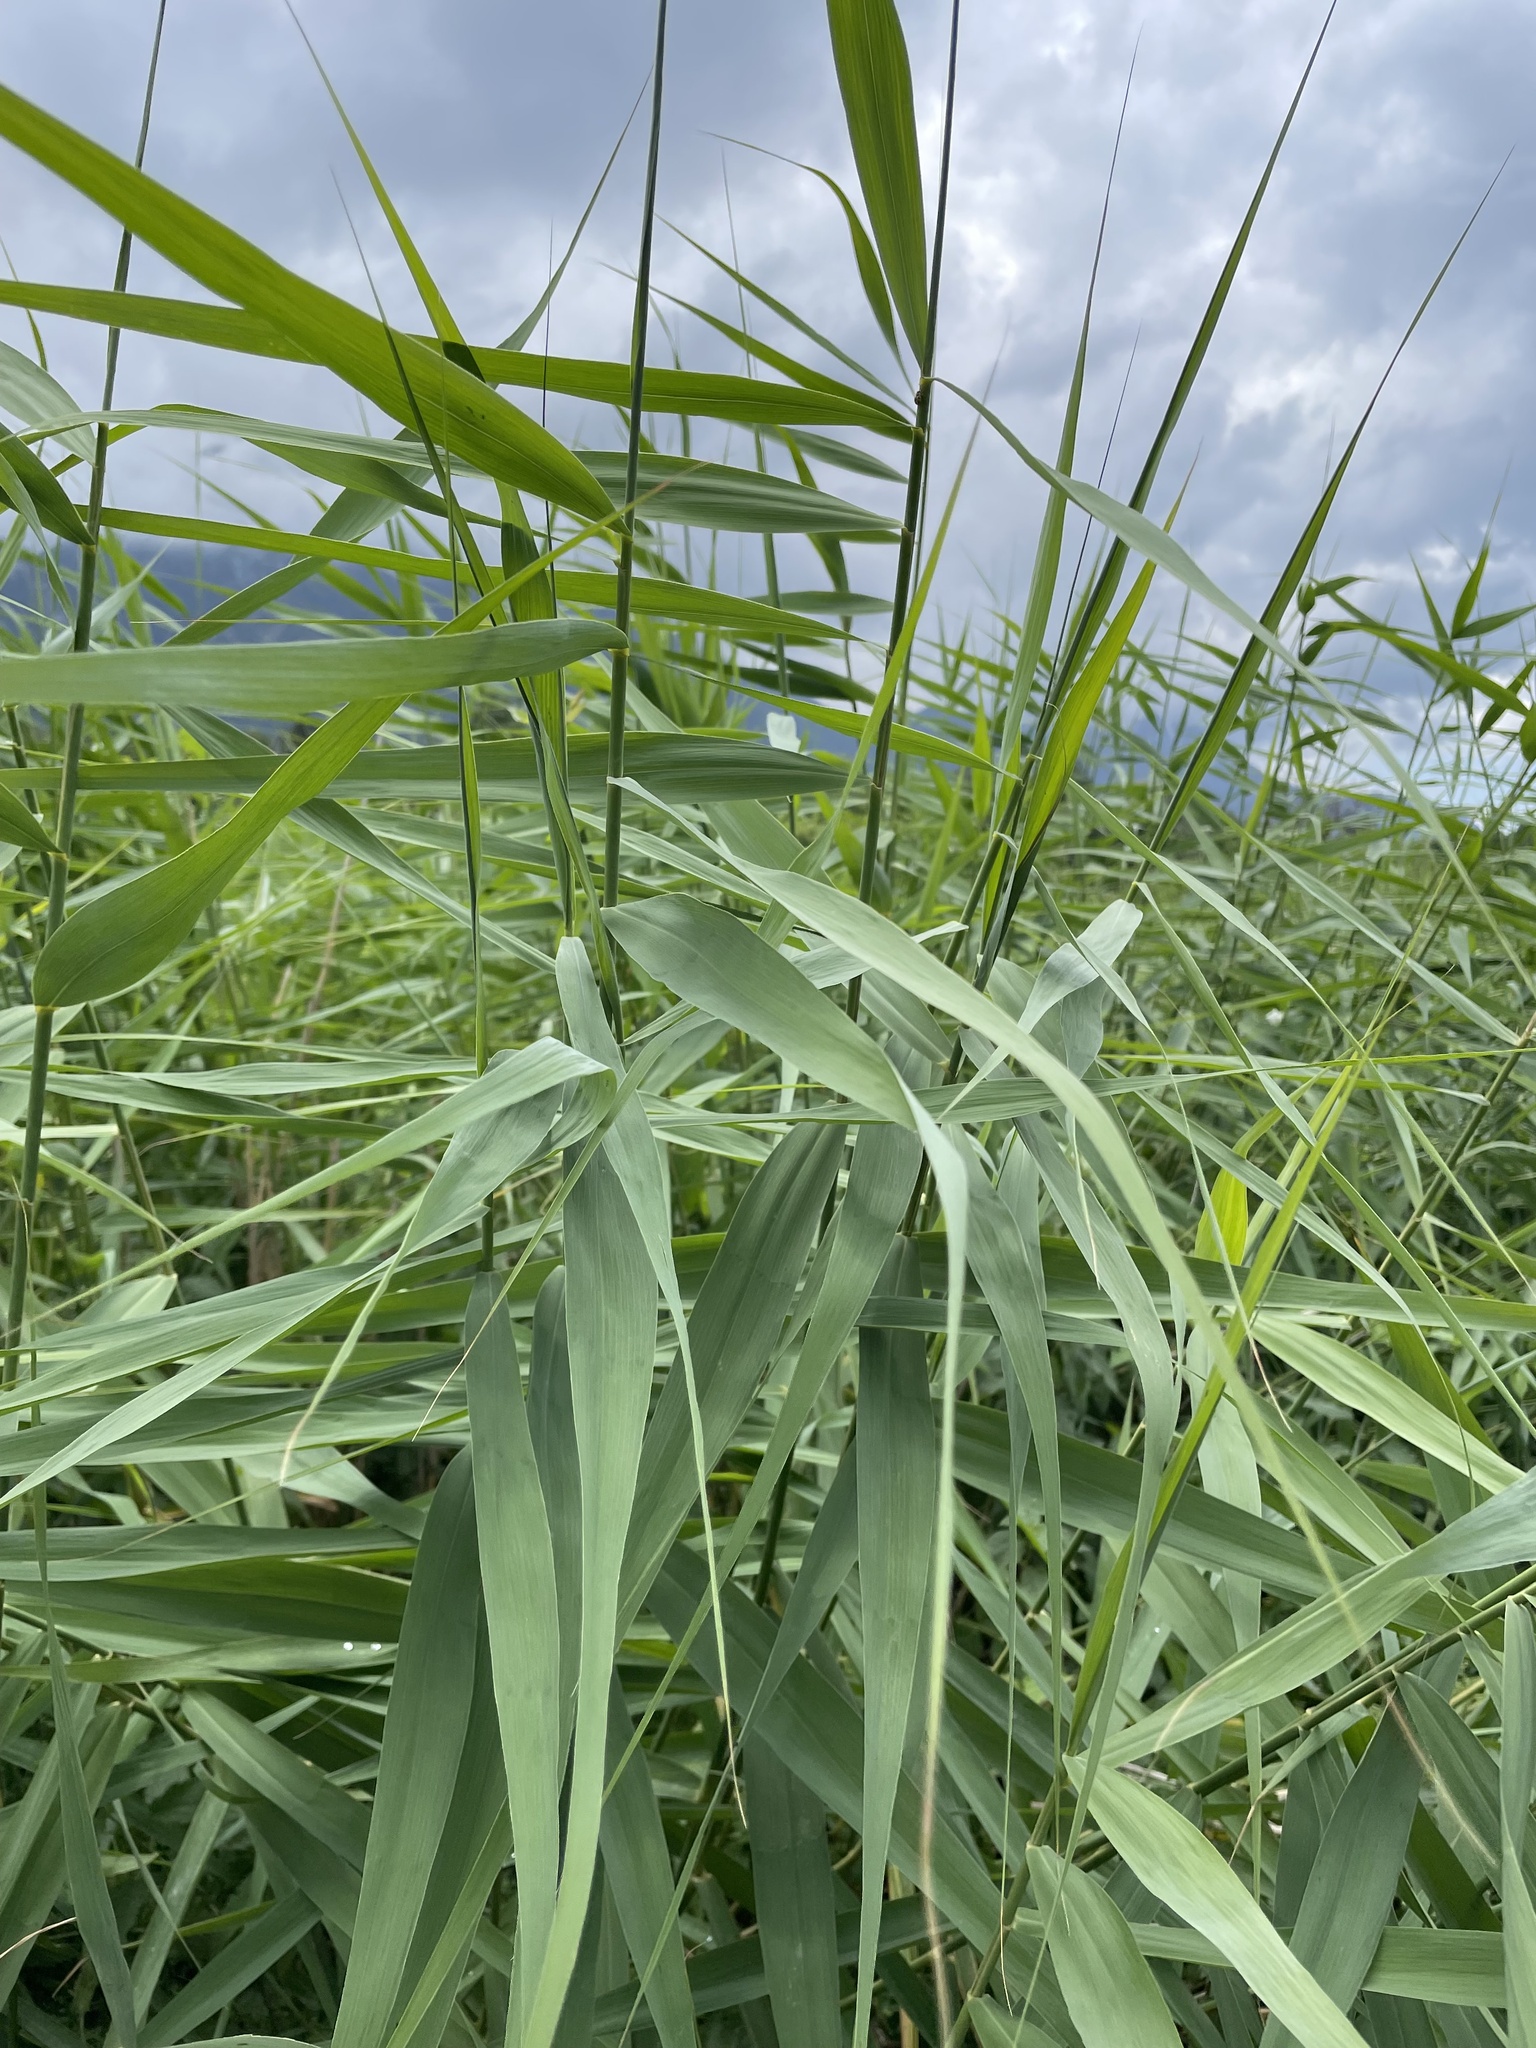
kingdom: Plantae
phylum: Tracheophyta
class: Liliopsida
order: Poales
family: Poaceae
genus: Phragmites
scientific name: Phragmites australis
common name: Common reed
